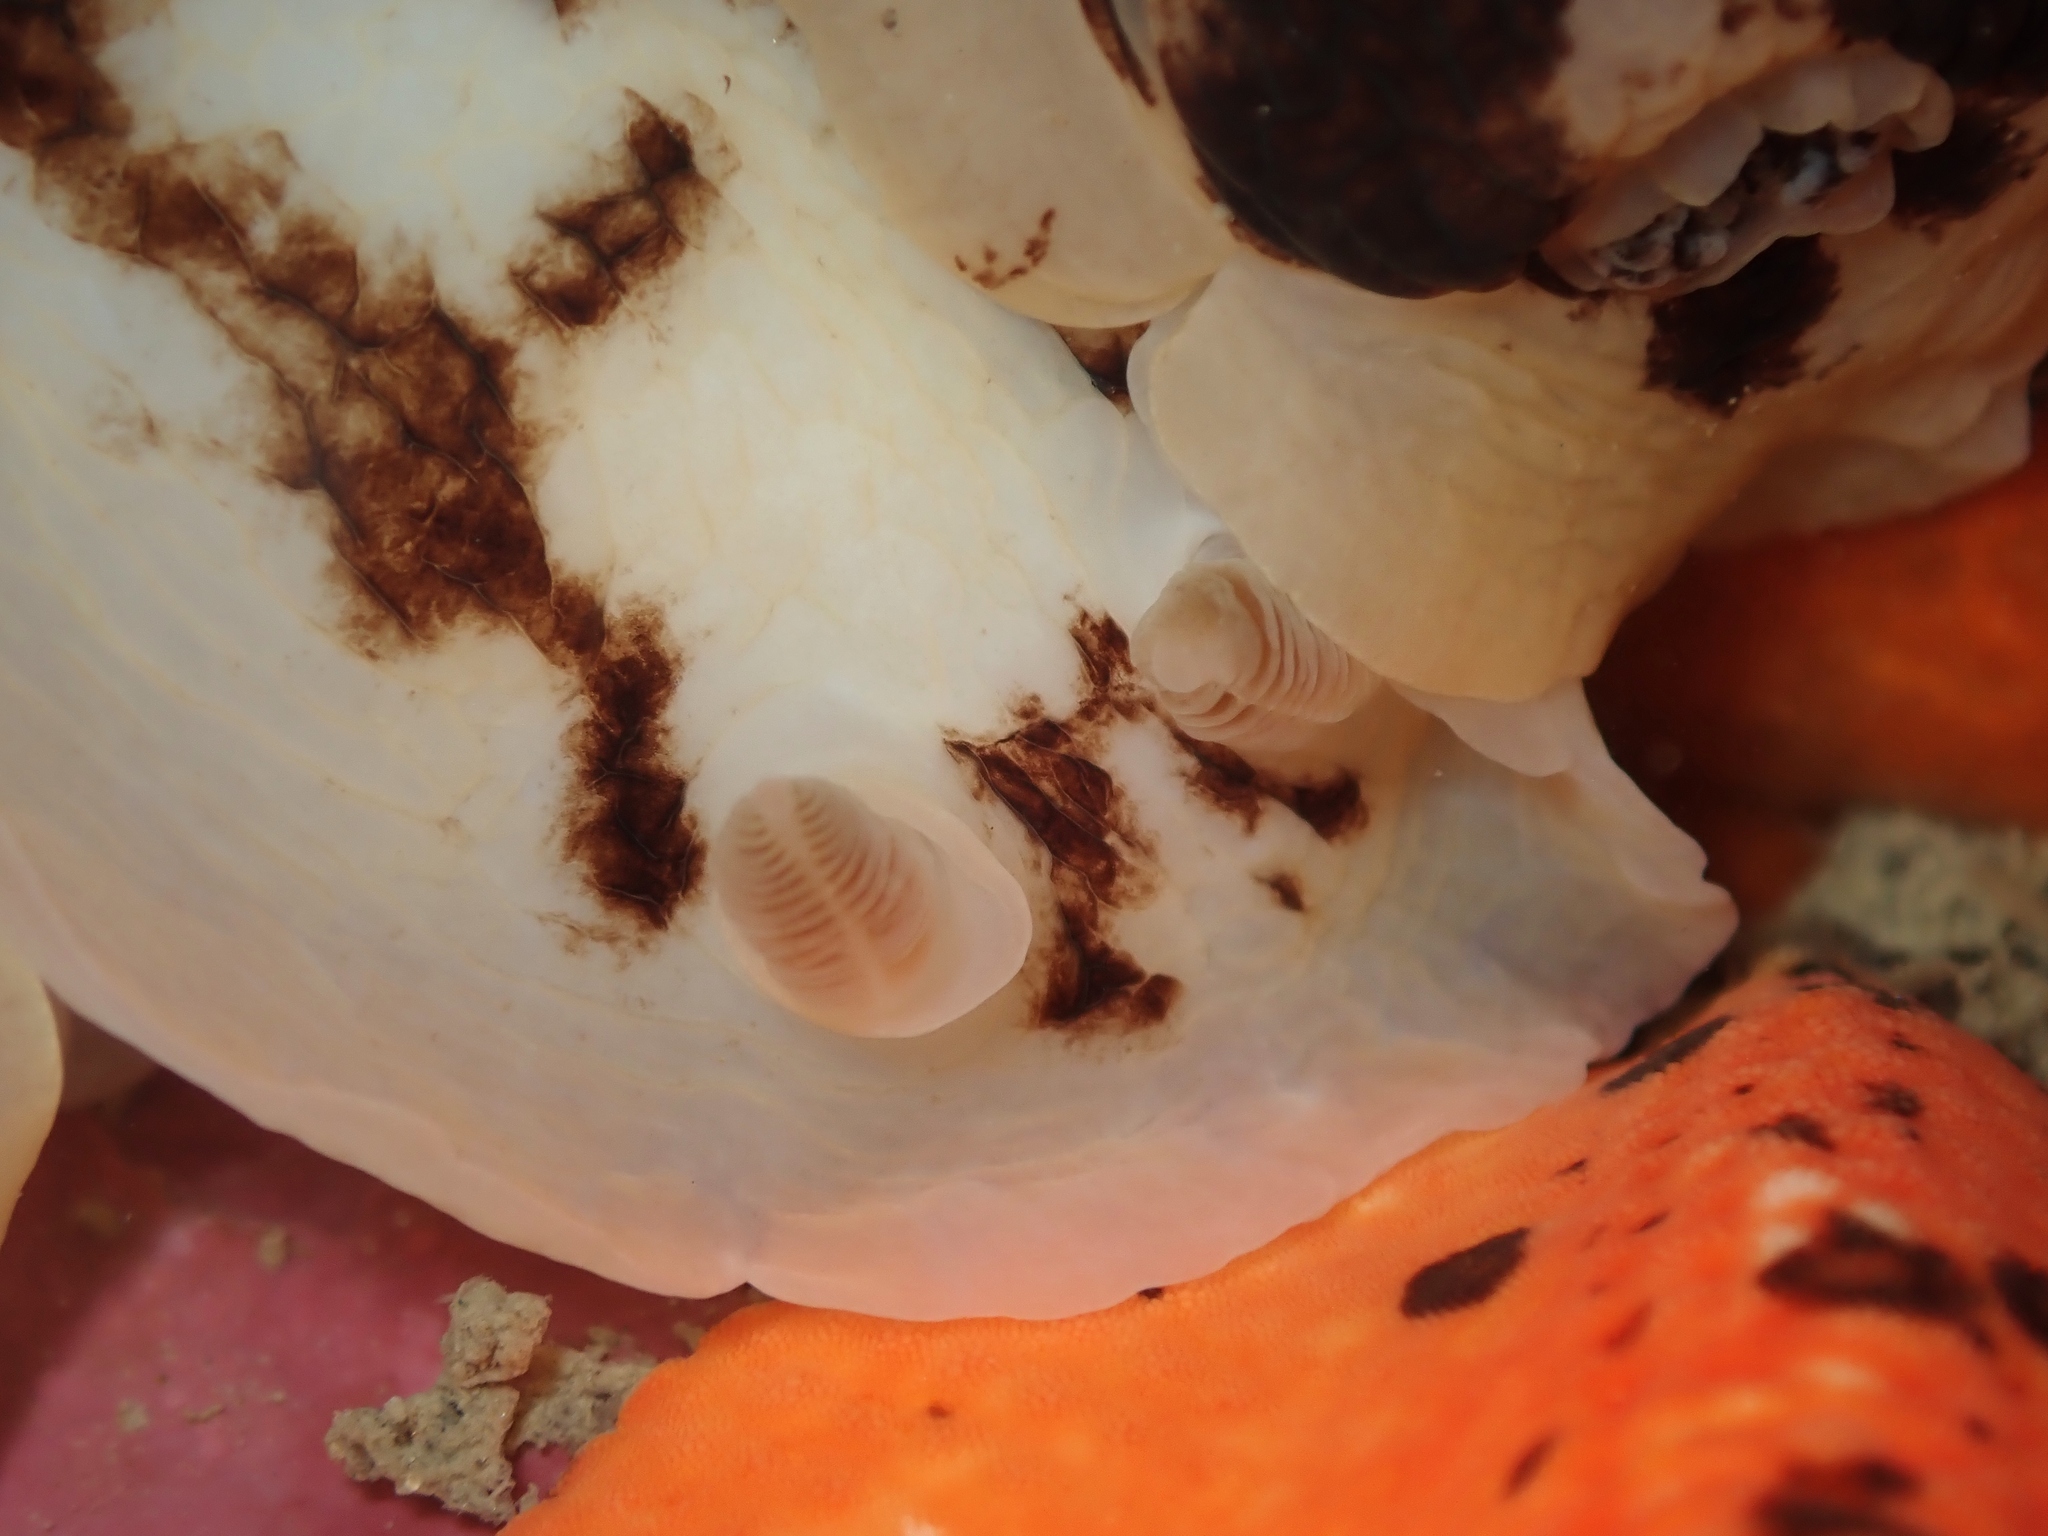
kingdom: Animalia
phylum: Mollusca
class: Gastropoda
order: Nudibranchia
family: Dorididae
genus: Aphelodoris
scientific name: Aphelodoris luctuosa
